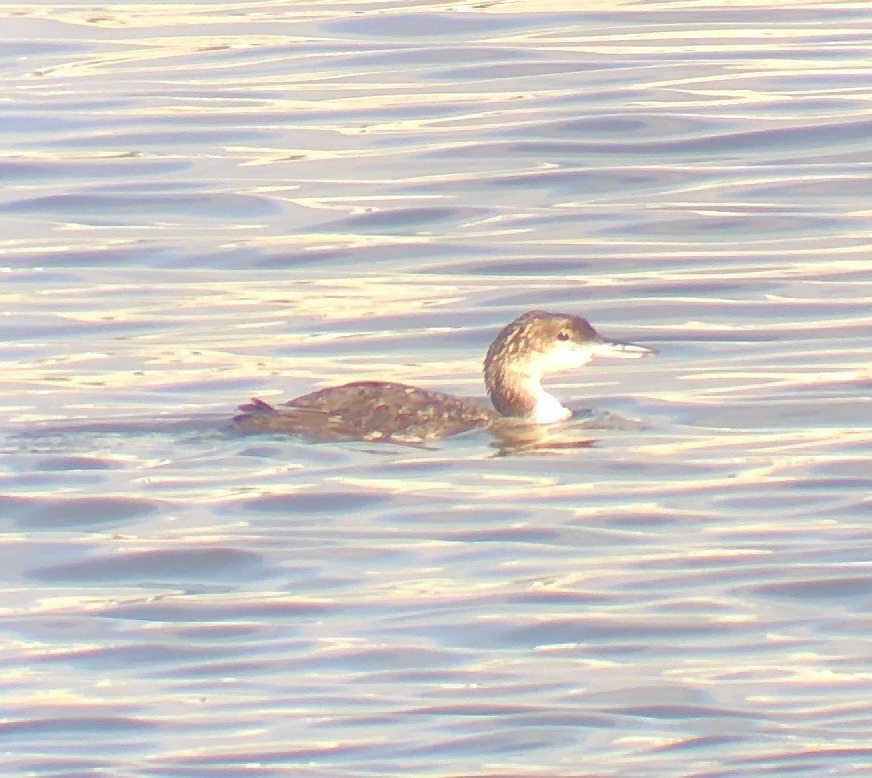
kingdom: Animalia
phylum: Chordata
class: Aves
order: Gaviiformes
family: Gaviidae
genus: Gavia
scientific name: Gavia immer
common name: Common loon
